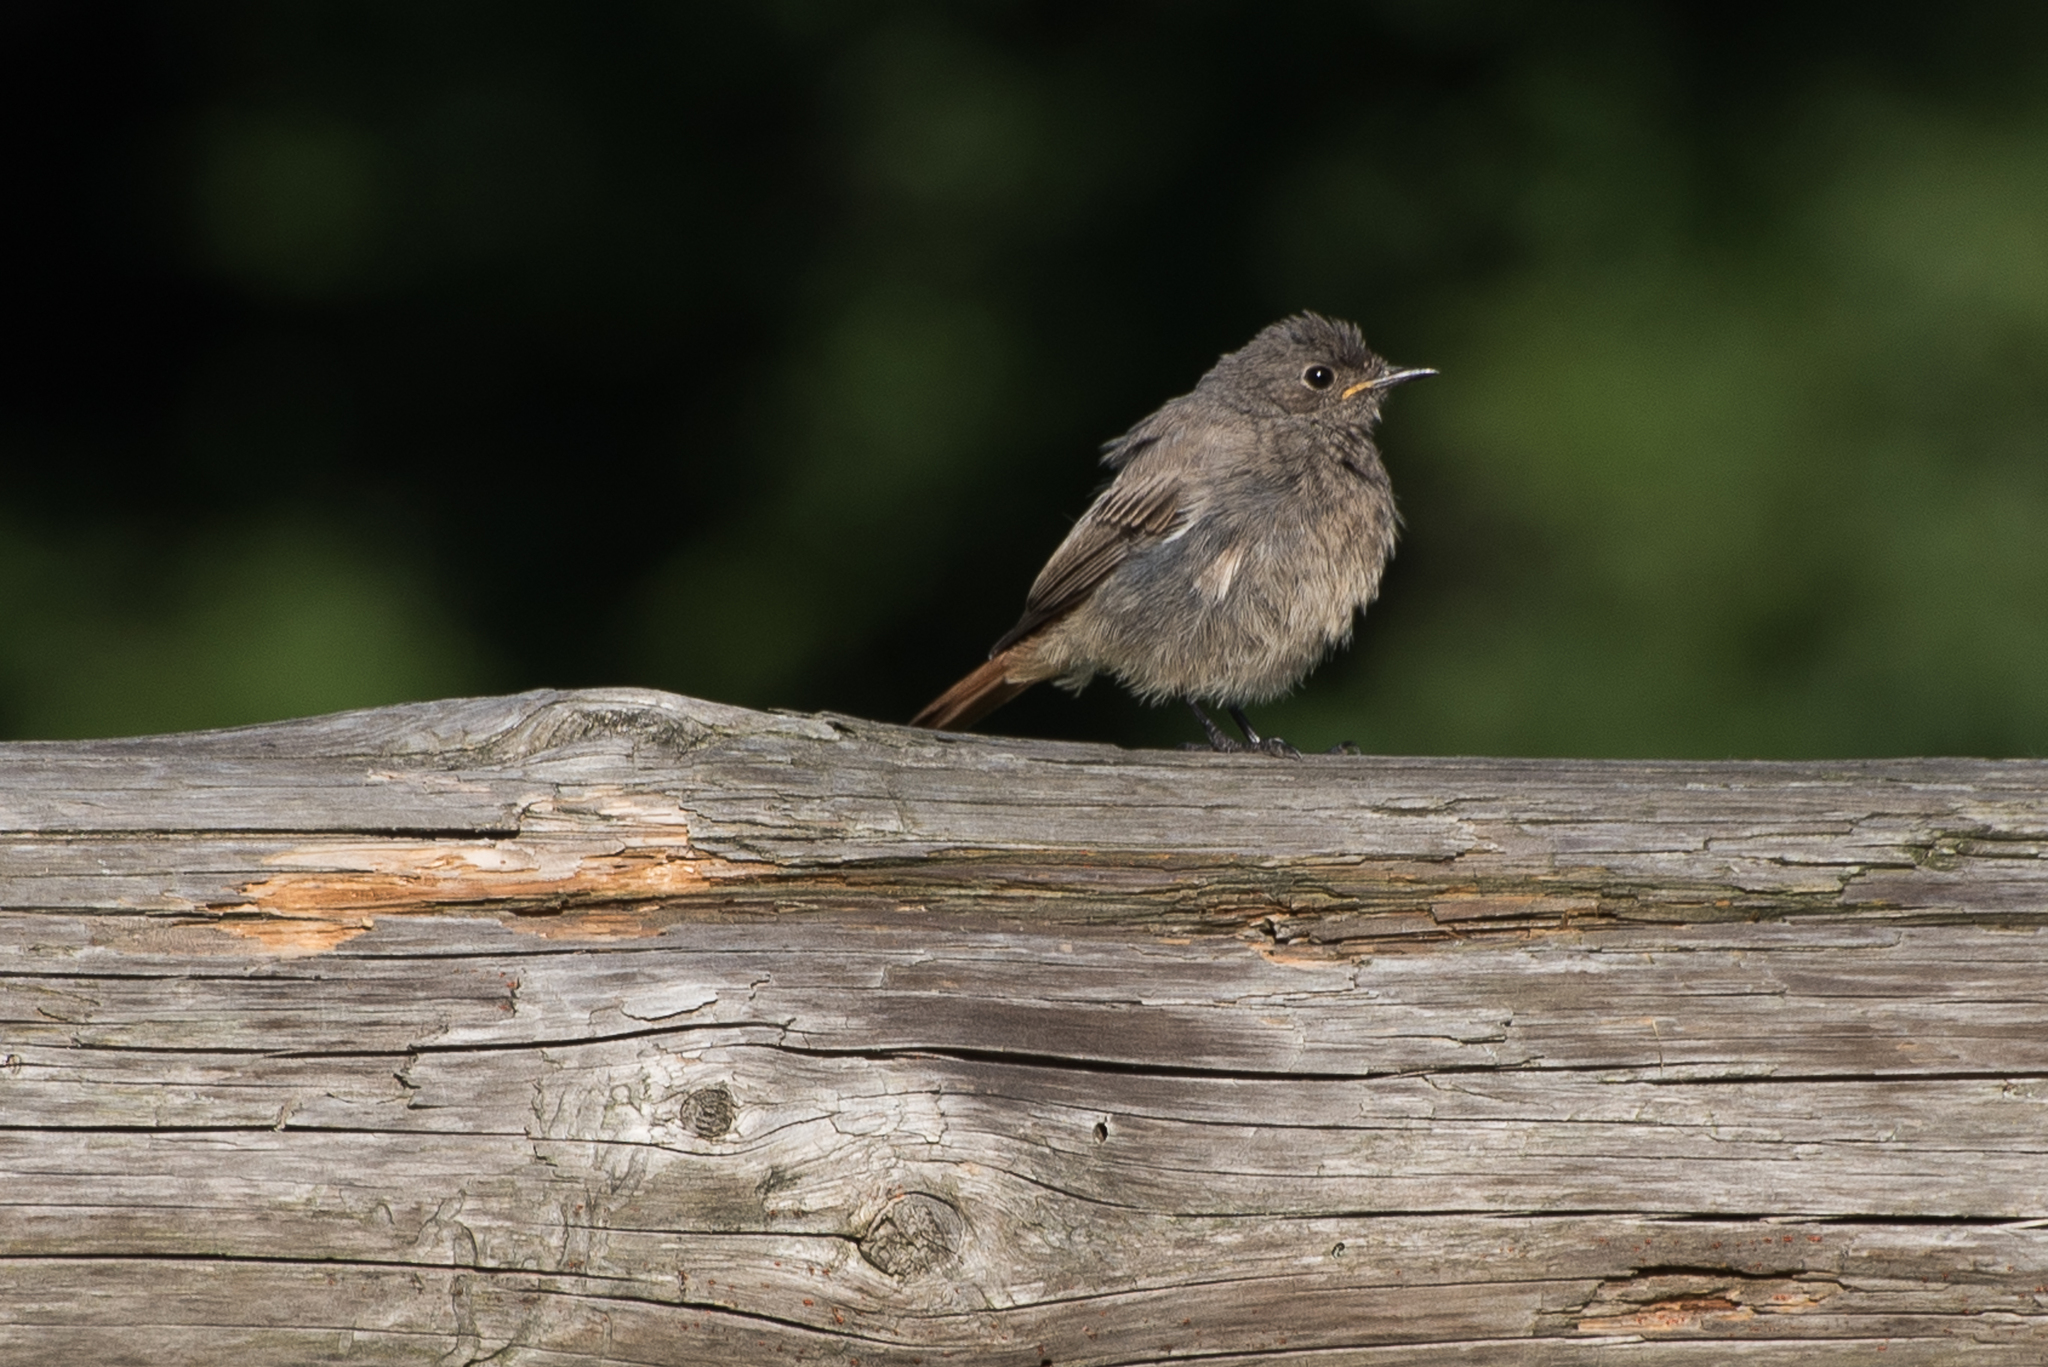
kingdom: Animalia
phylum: Chordata
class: Aves
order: Passeriformes
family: Muscicapidae
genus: Phoenicurus
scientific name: Phoenicurus ochruros
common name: Black redstart
